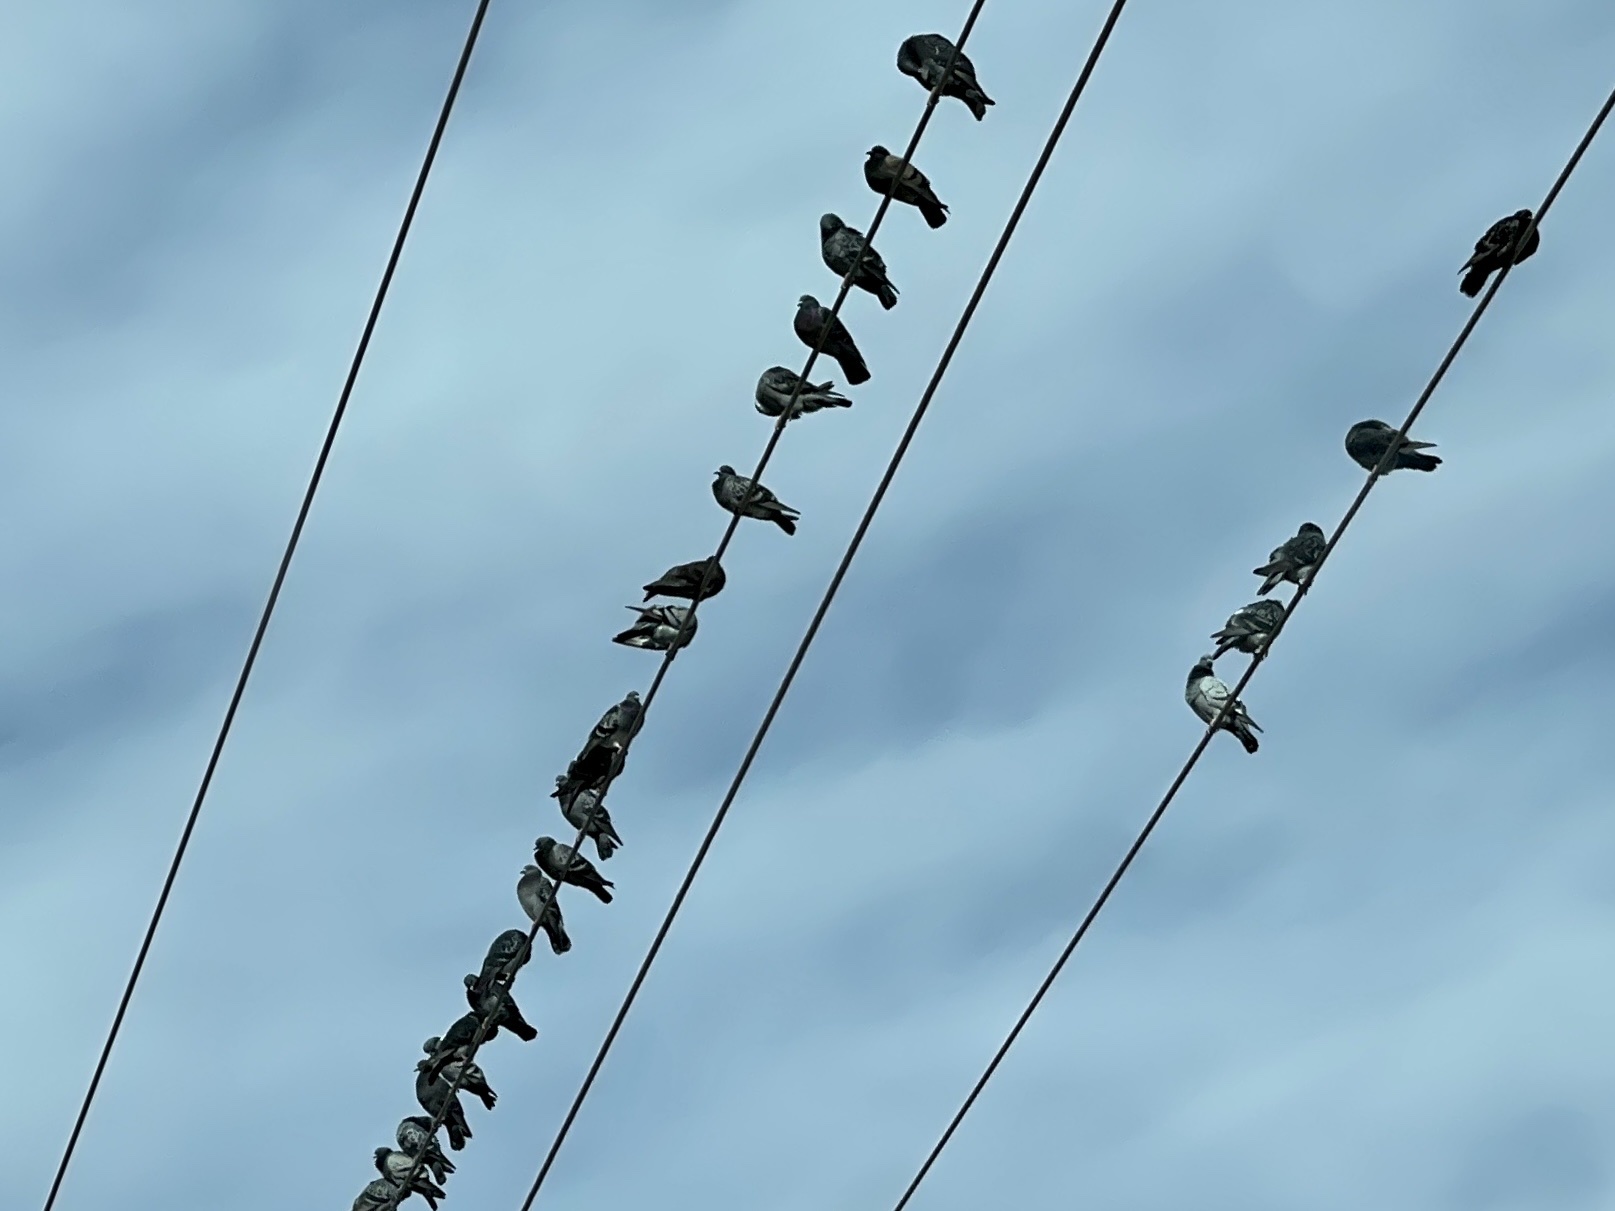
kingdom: Animalia
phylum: Chordata
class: Aves
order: Columbiformes
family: Columbidae
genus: Columba
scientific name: Columba livia
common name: Rock pigeon
